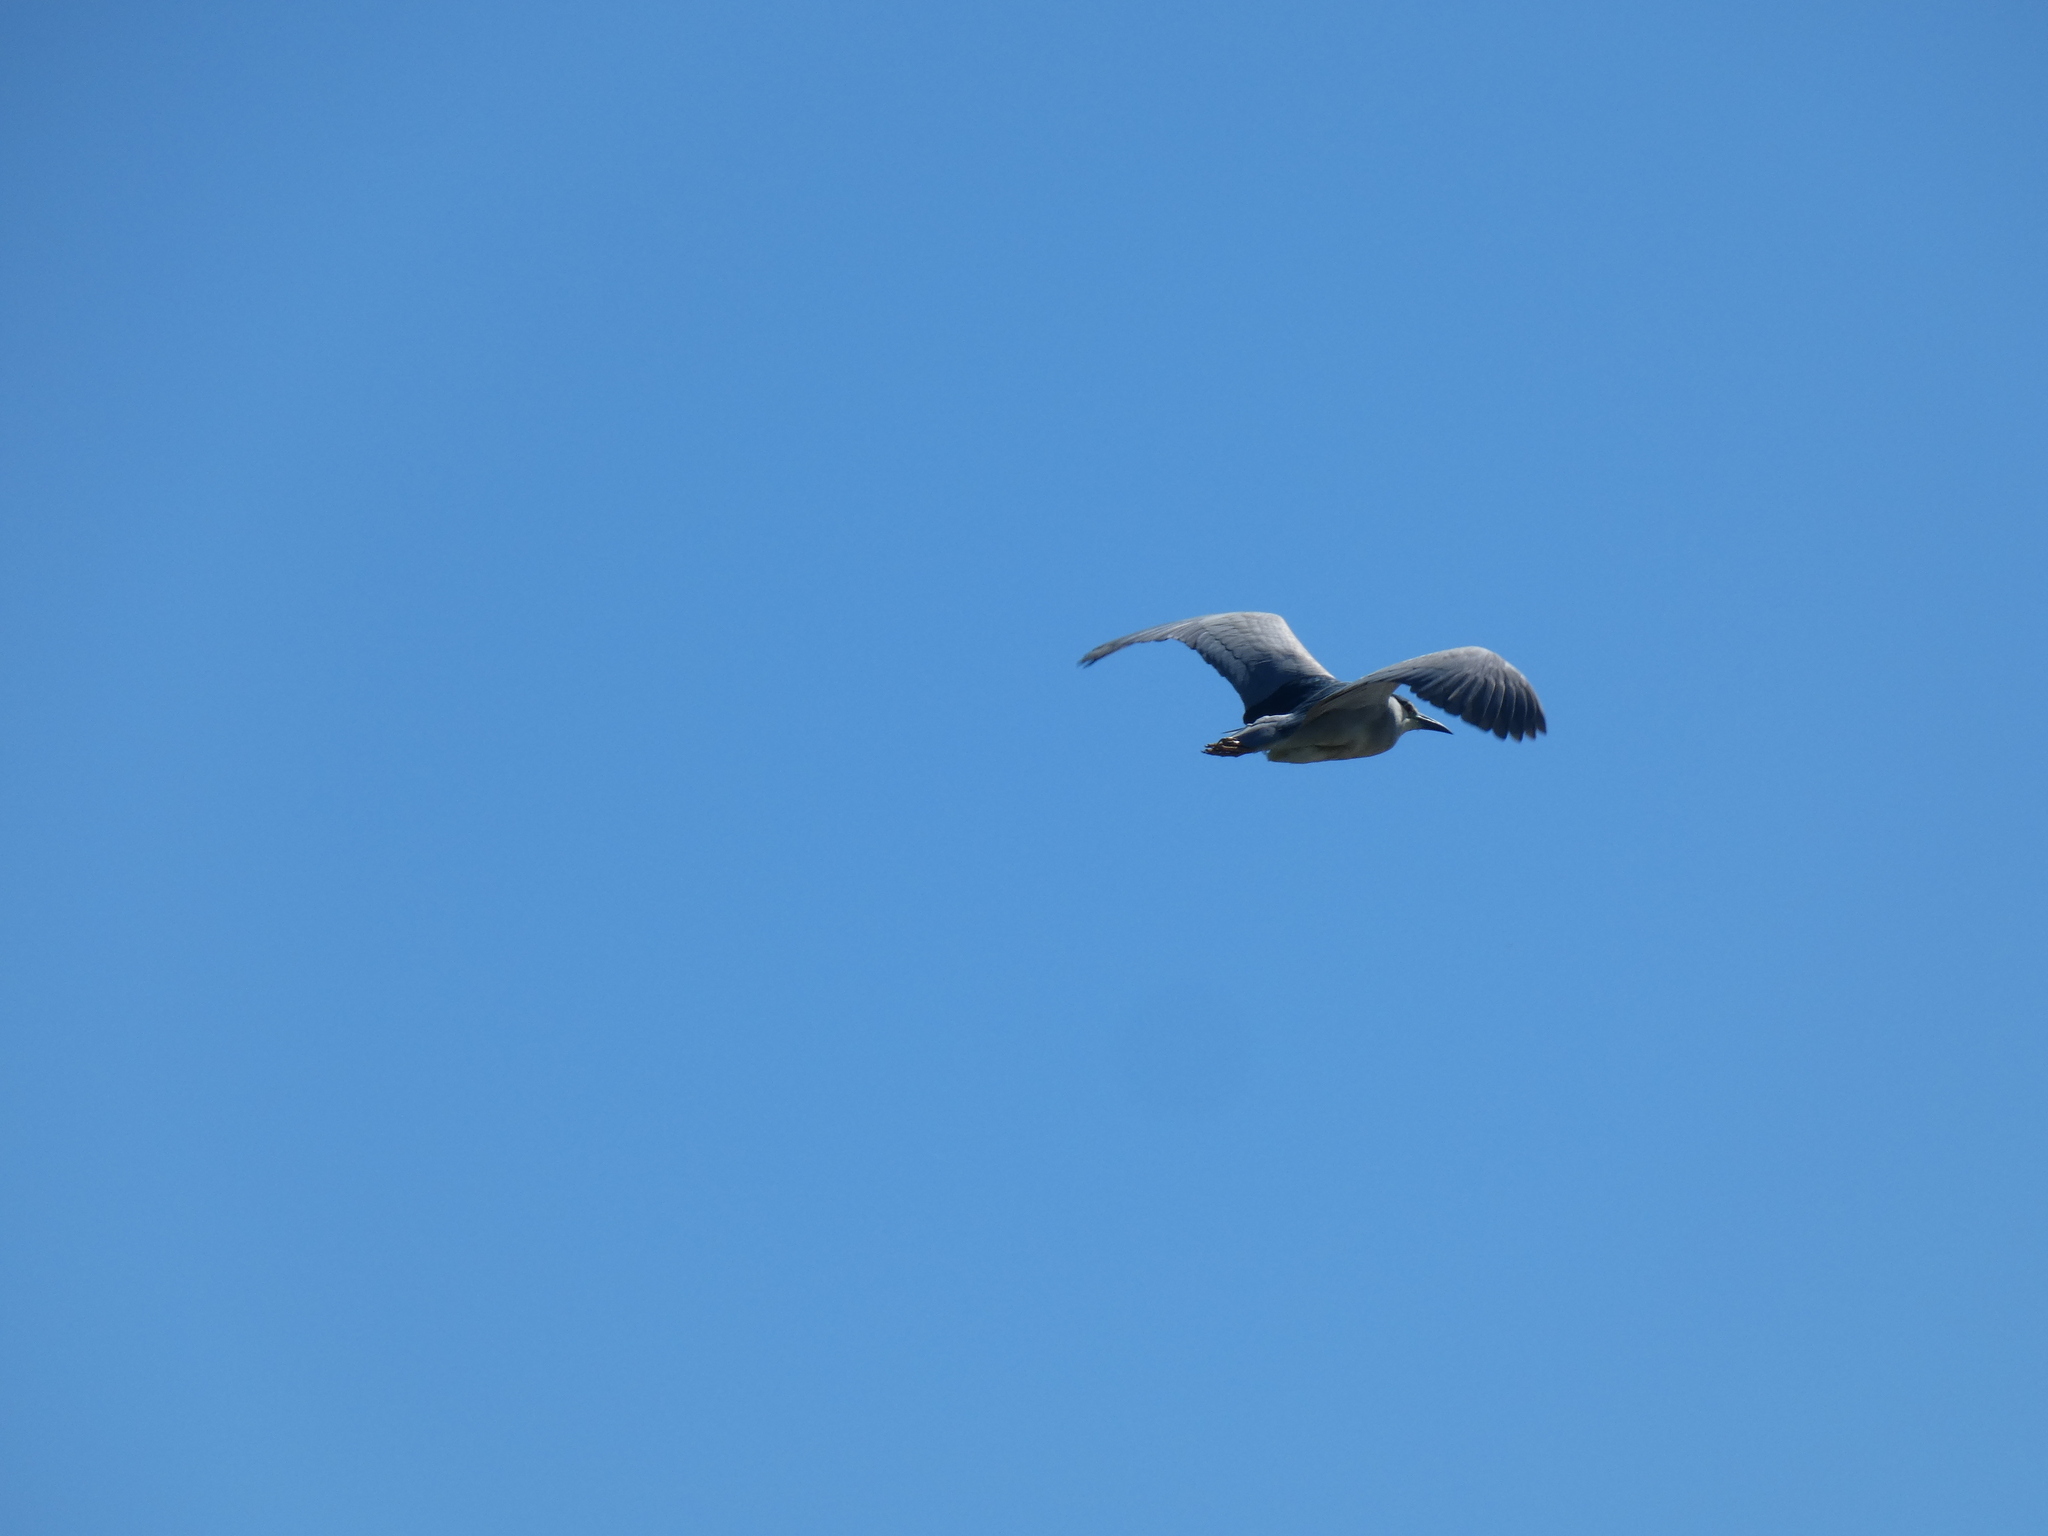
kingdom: Animalia
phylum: Chordata
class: Aves
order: Pelecaniformes
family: Ardeidae
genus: Nycticorax
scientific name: Nycticorax nycticorax
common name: Black-crowned night heron
